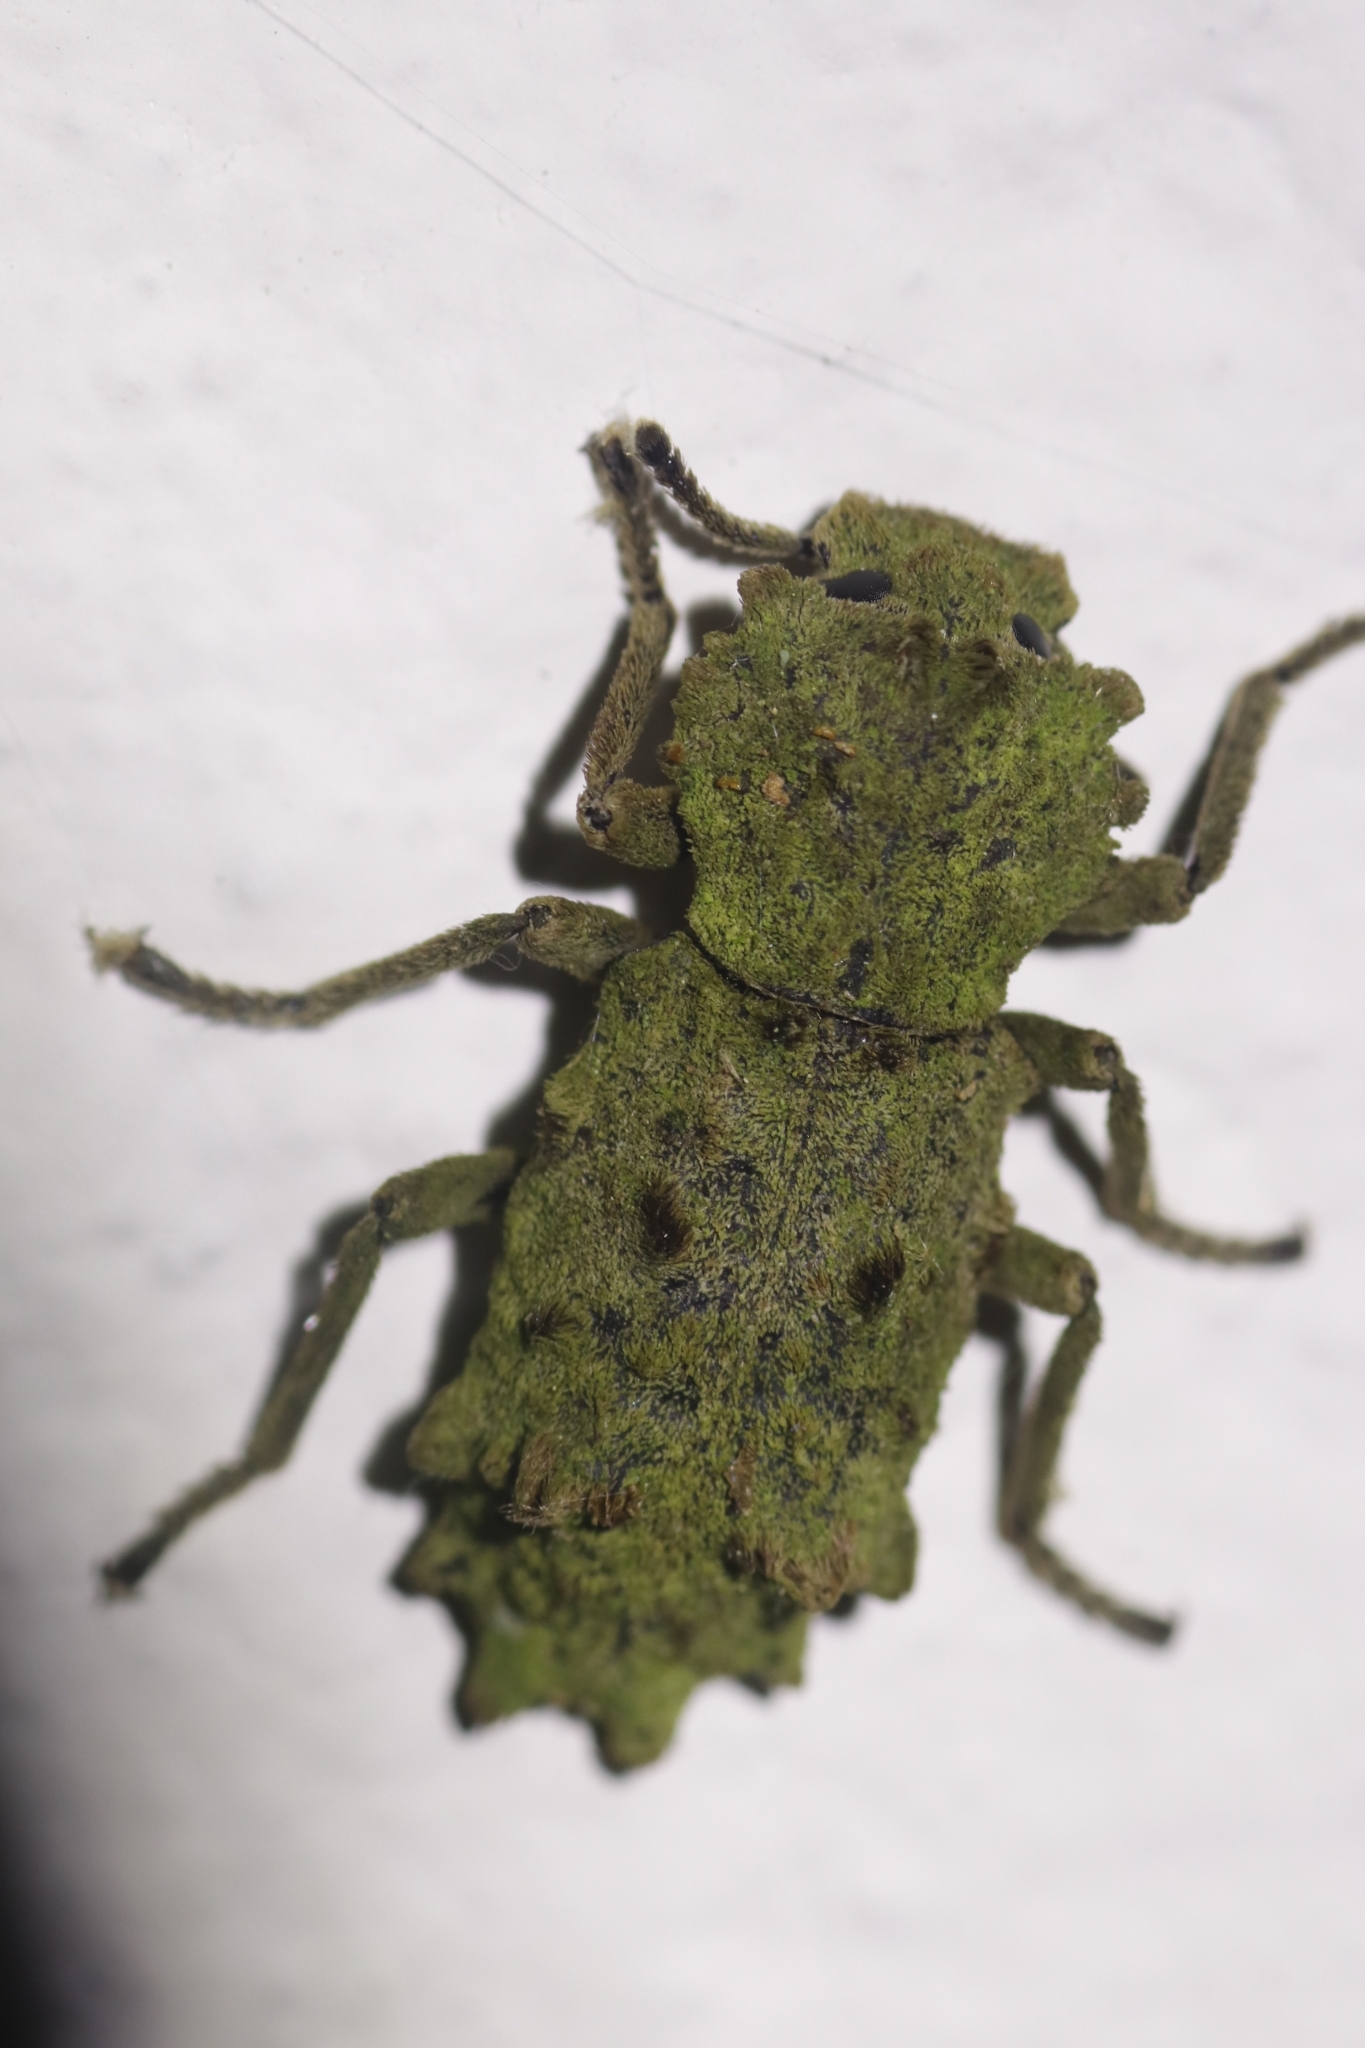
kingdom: Animalia
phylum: Arthropoda
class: Insecta
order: Coleoptera
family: Zopheridae
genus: Noserinus
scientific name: Noserinus
